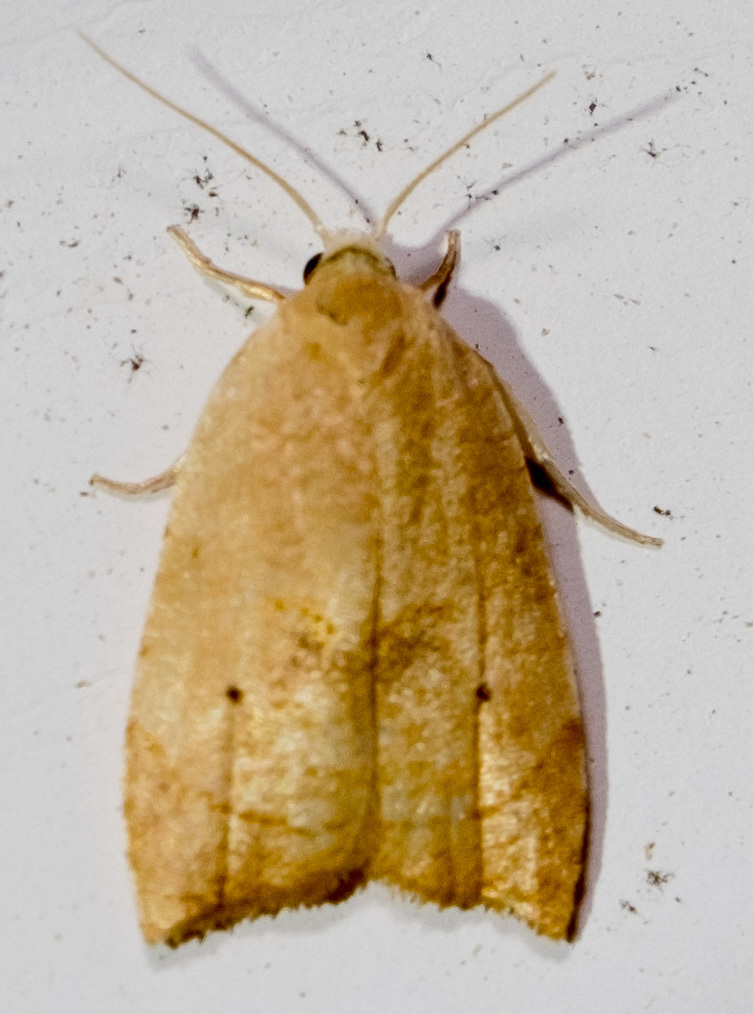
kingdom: Animalia
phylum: Arthropoda
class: Insecta
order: Lepidoptera
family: Tortricidae
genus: Coelostathma
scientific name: Coelostathma discopunctana
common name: Batman moth
